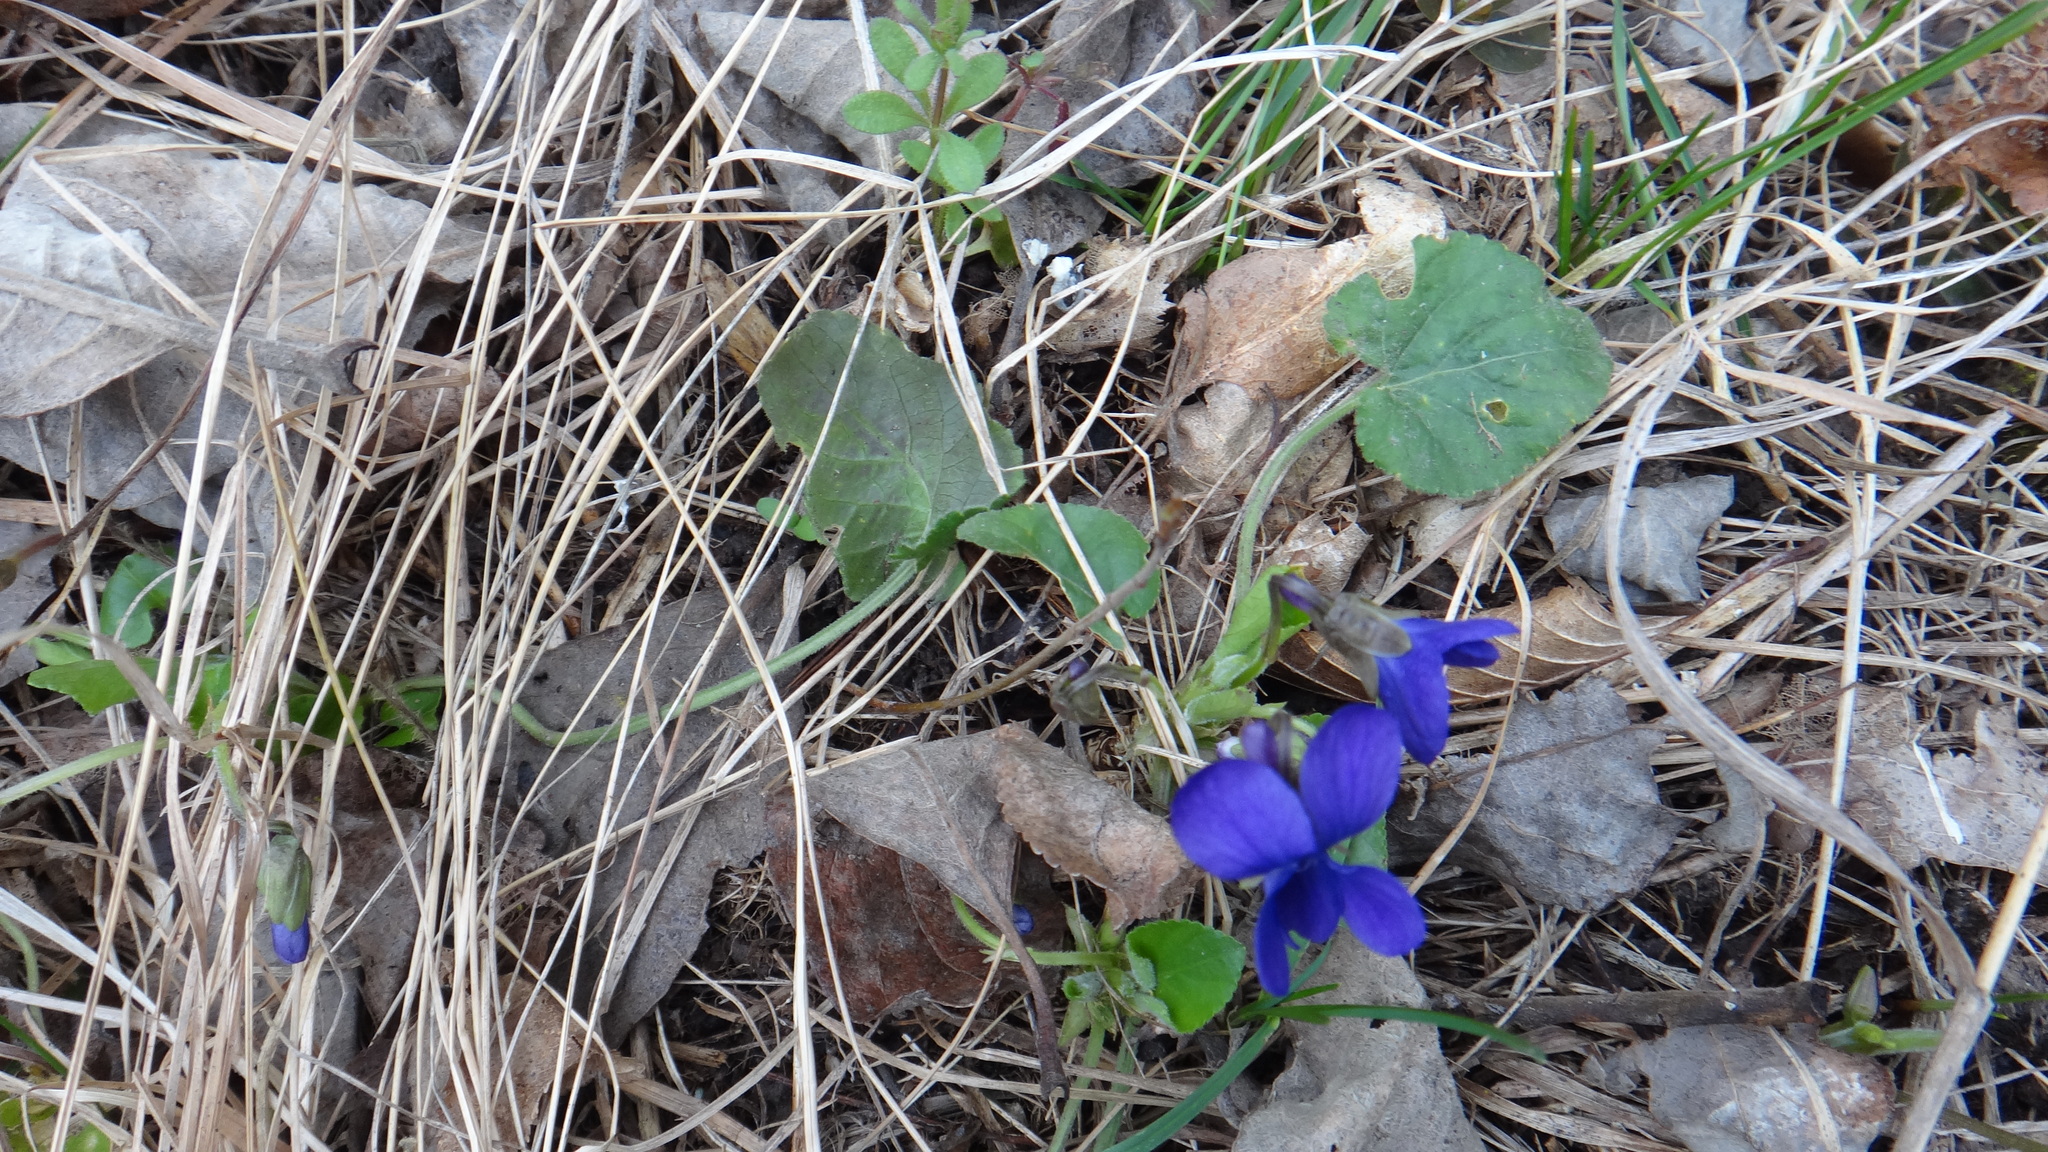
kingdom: Plantae
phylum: Tracheophyta
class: Magnoliopsida
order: Malpighiales
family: Violaceae
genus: Viola
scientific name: Viola odorata
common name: Sweet violet
